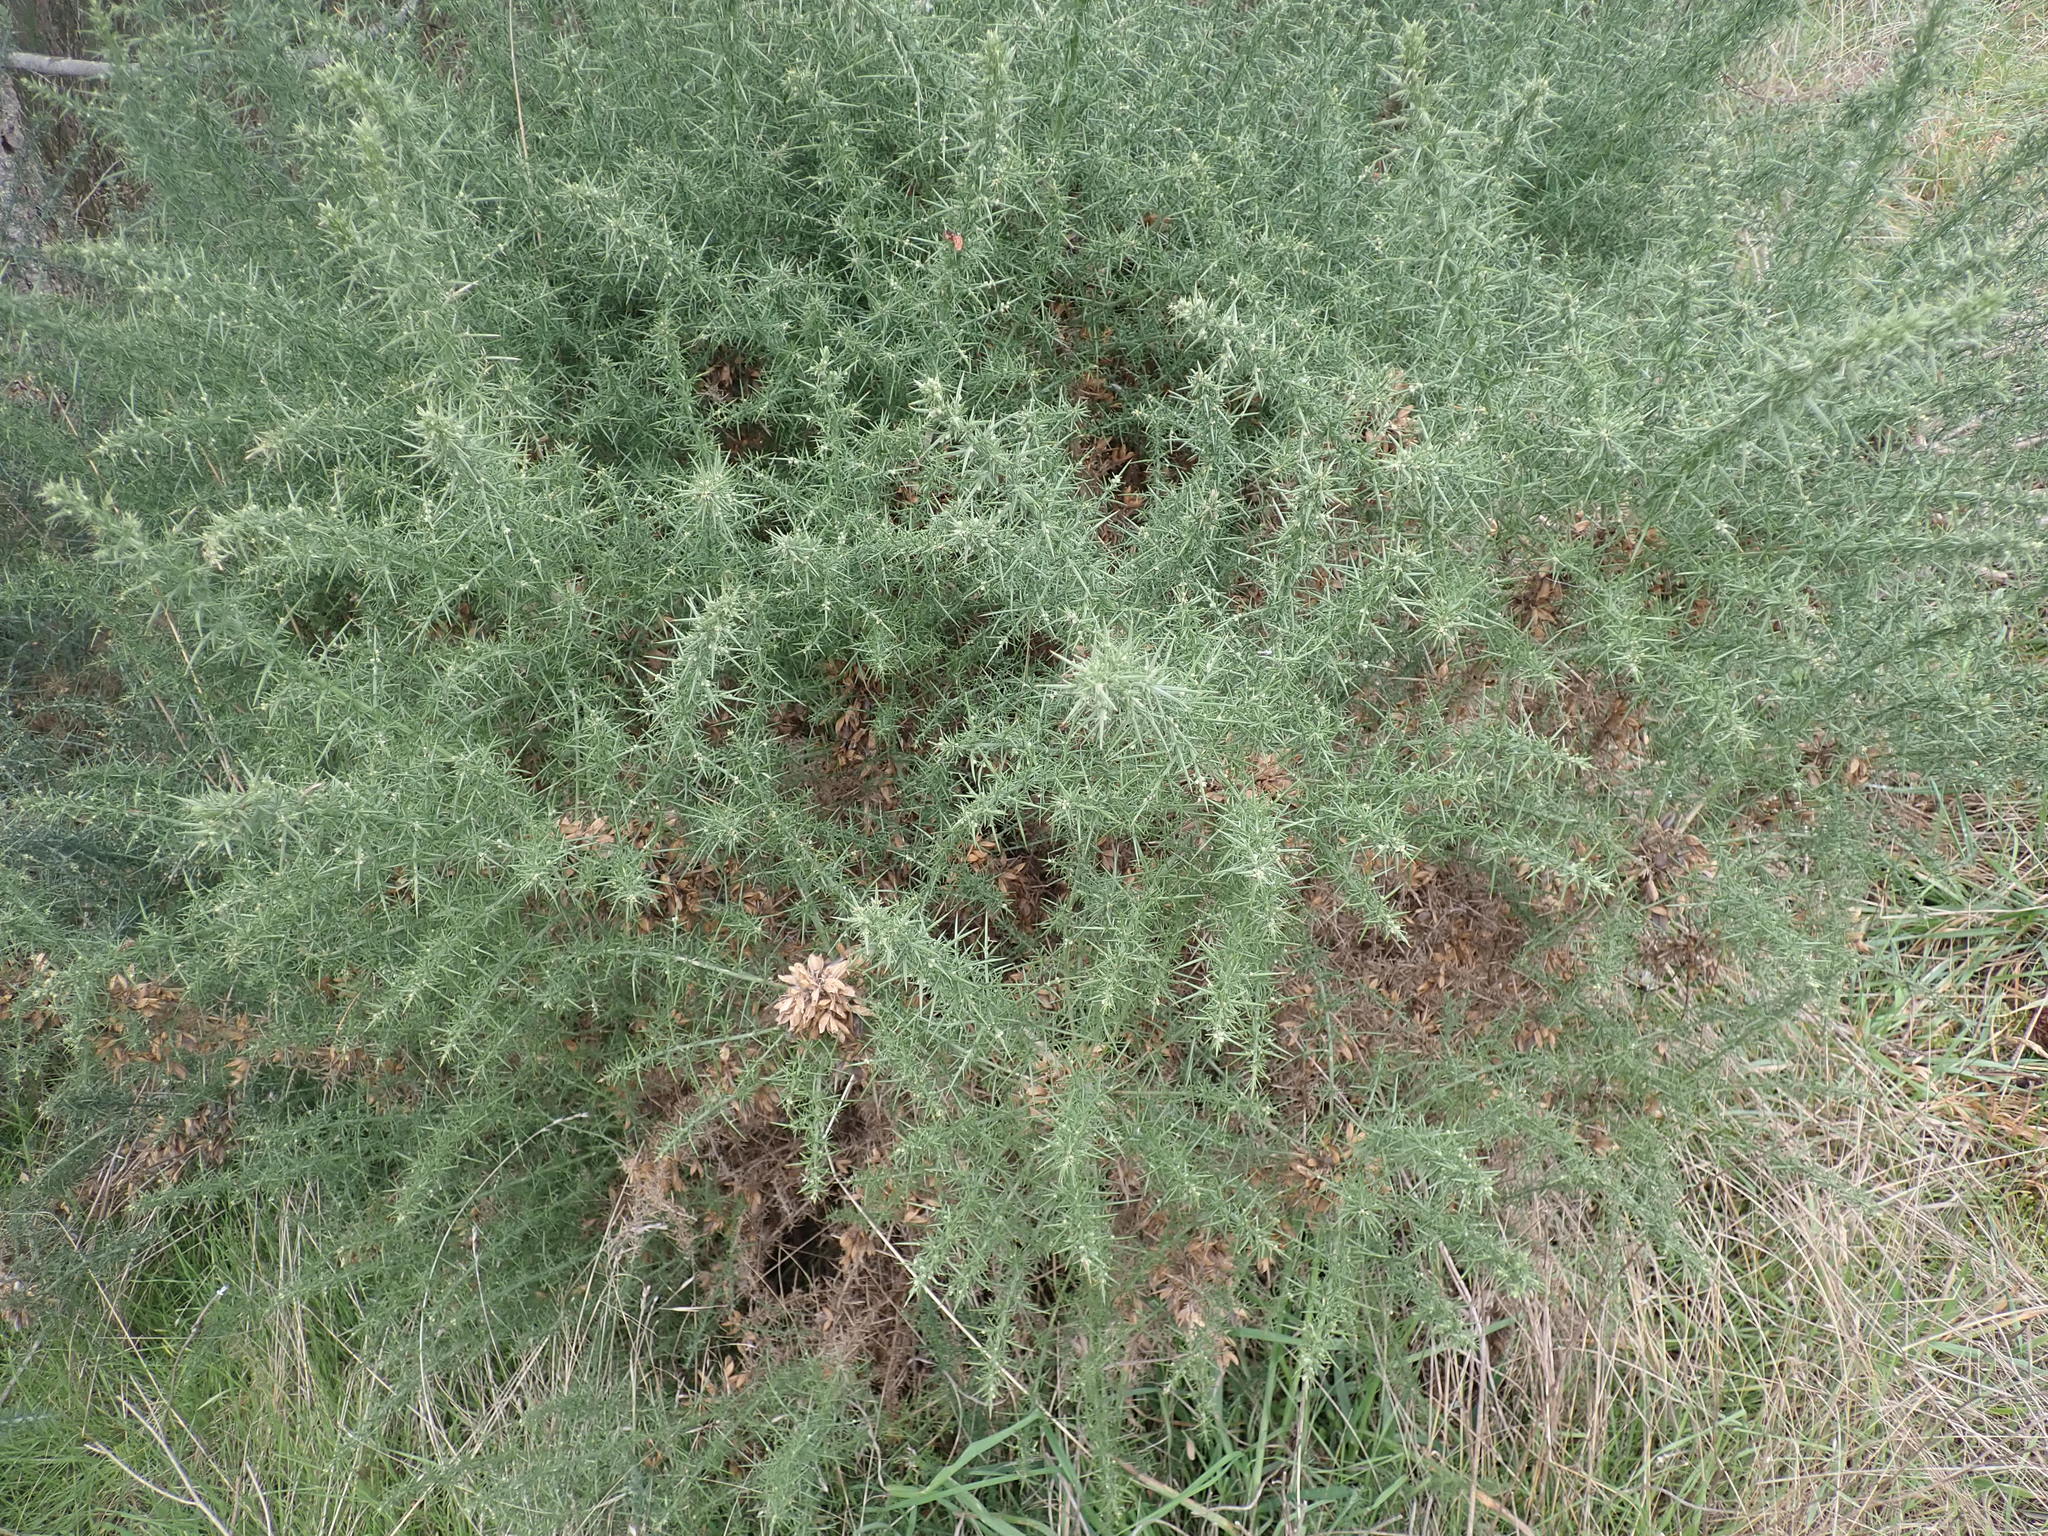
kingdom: Plantae
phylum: Tracheophyta
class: Magnoliopsida
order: Fabales
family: Fabaceae
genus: Ulex
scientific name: Ulex europaeus
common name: Common gorse
